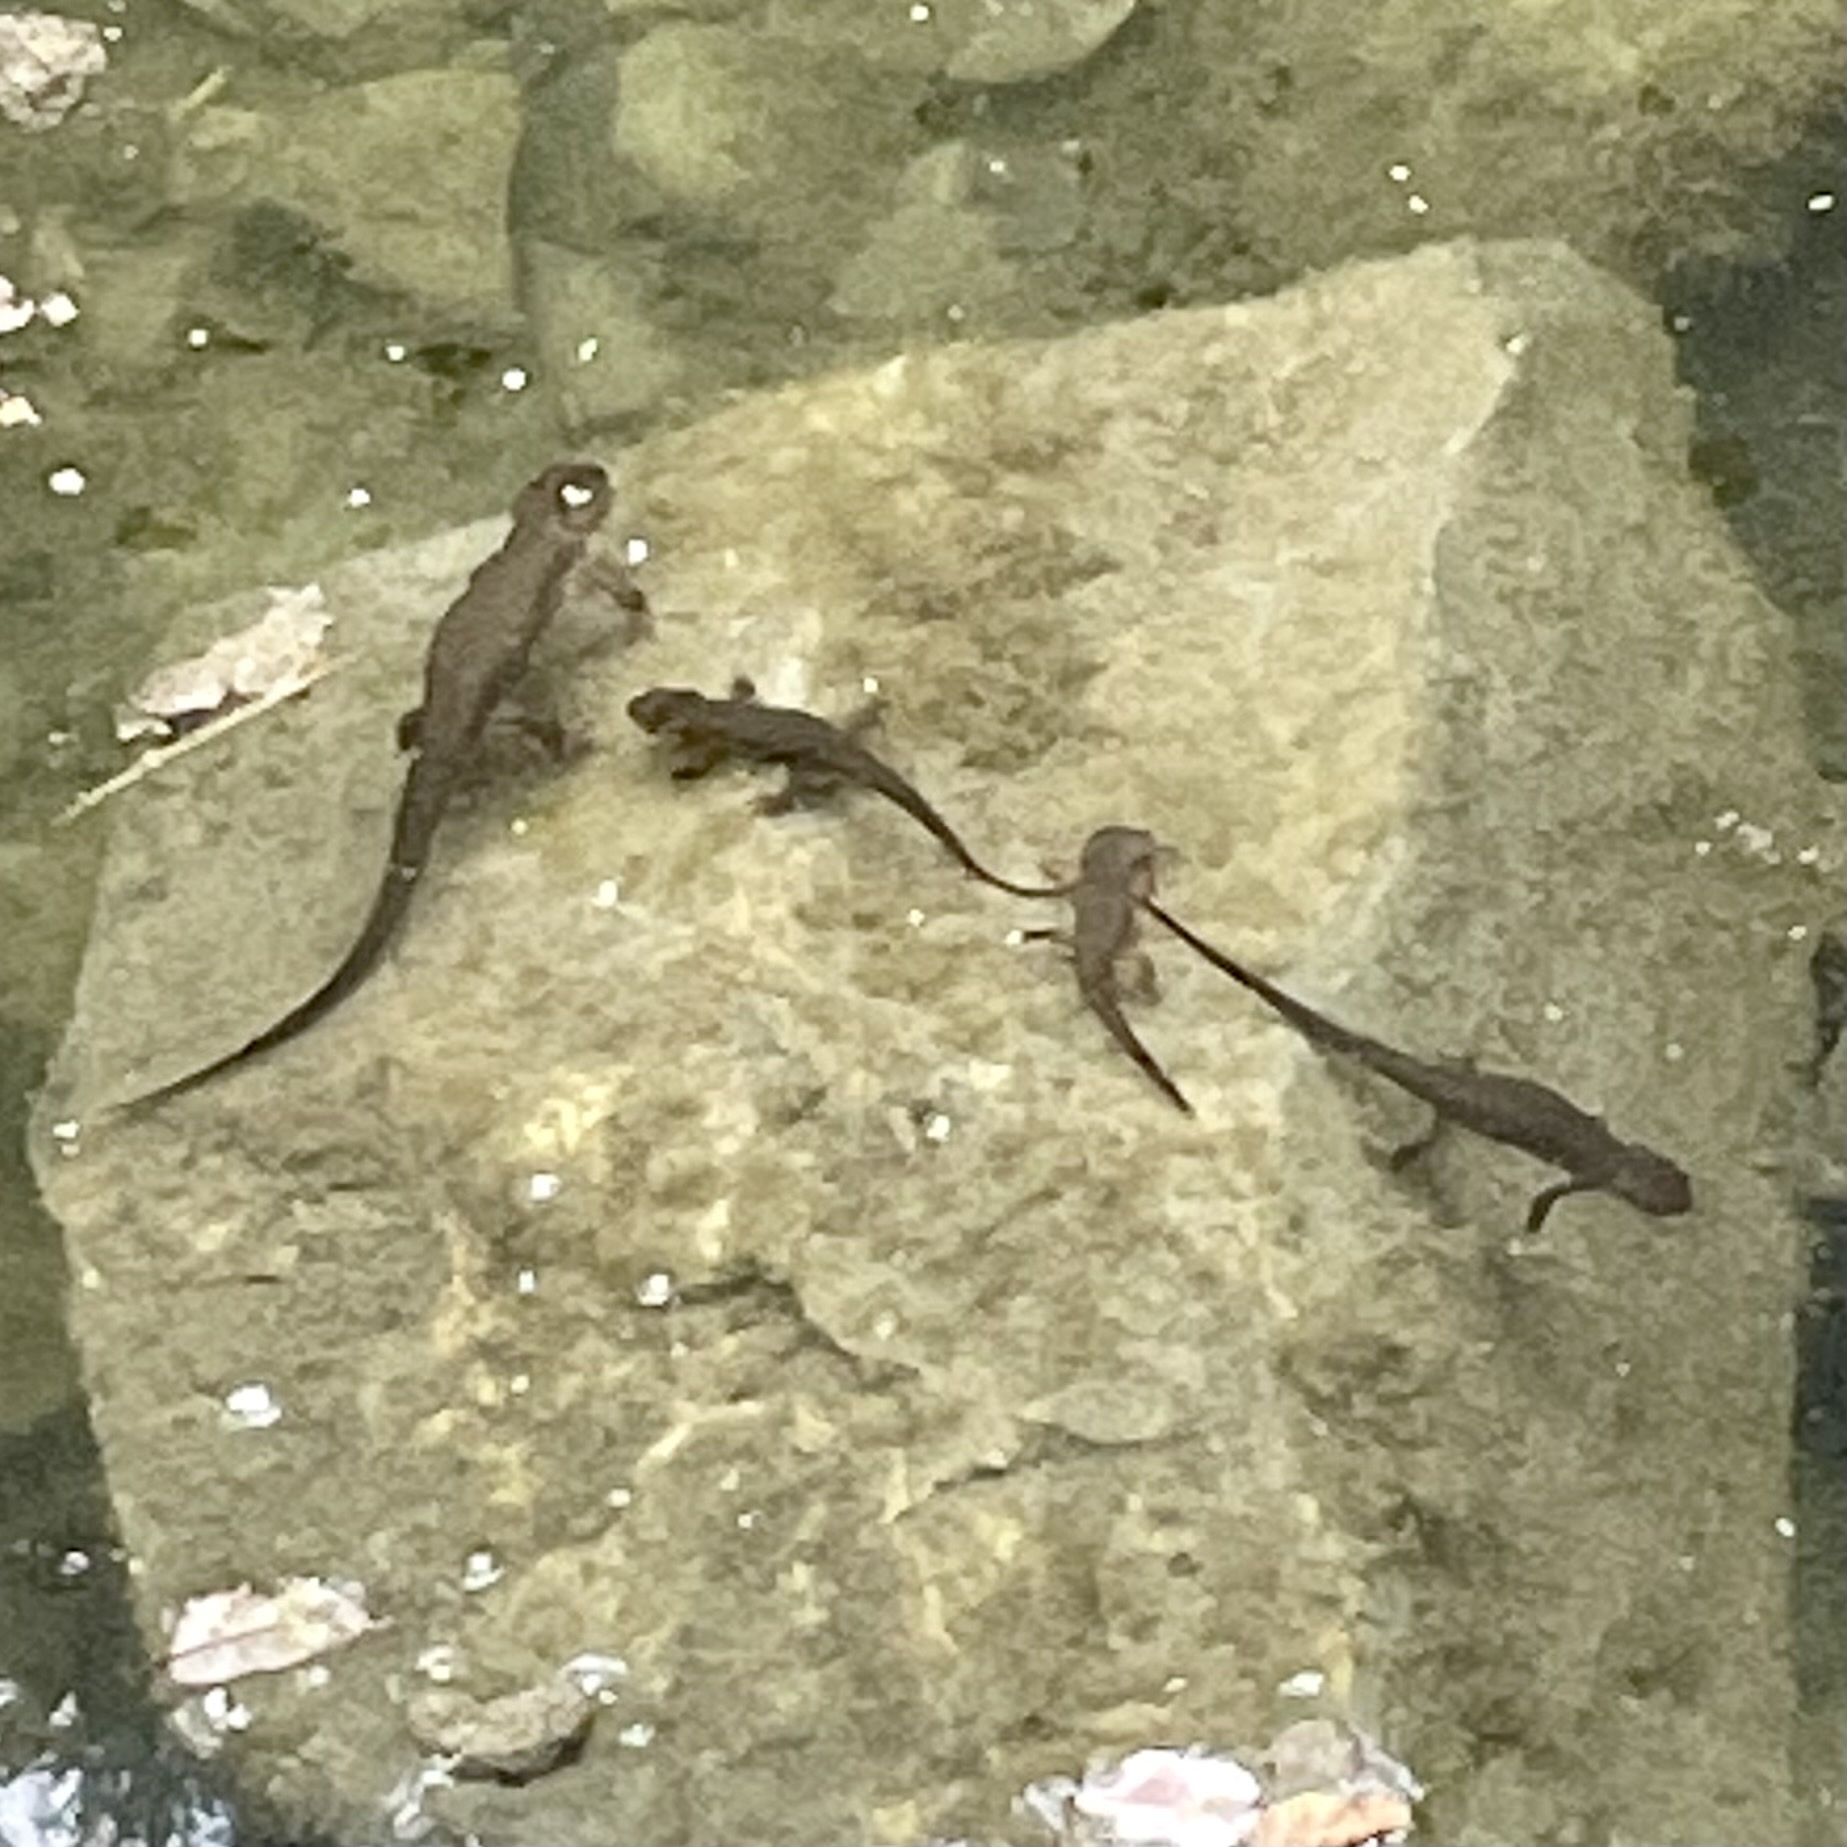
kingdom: Animalia
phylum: Chordata
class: Amphibia
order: Caudata
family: Salamandridae
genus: Taricha
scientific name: Taricha torosa
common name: California newt
